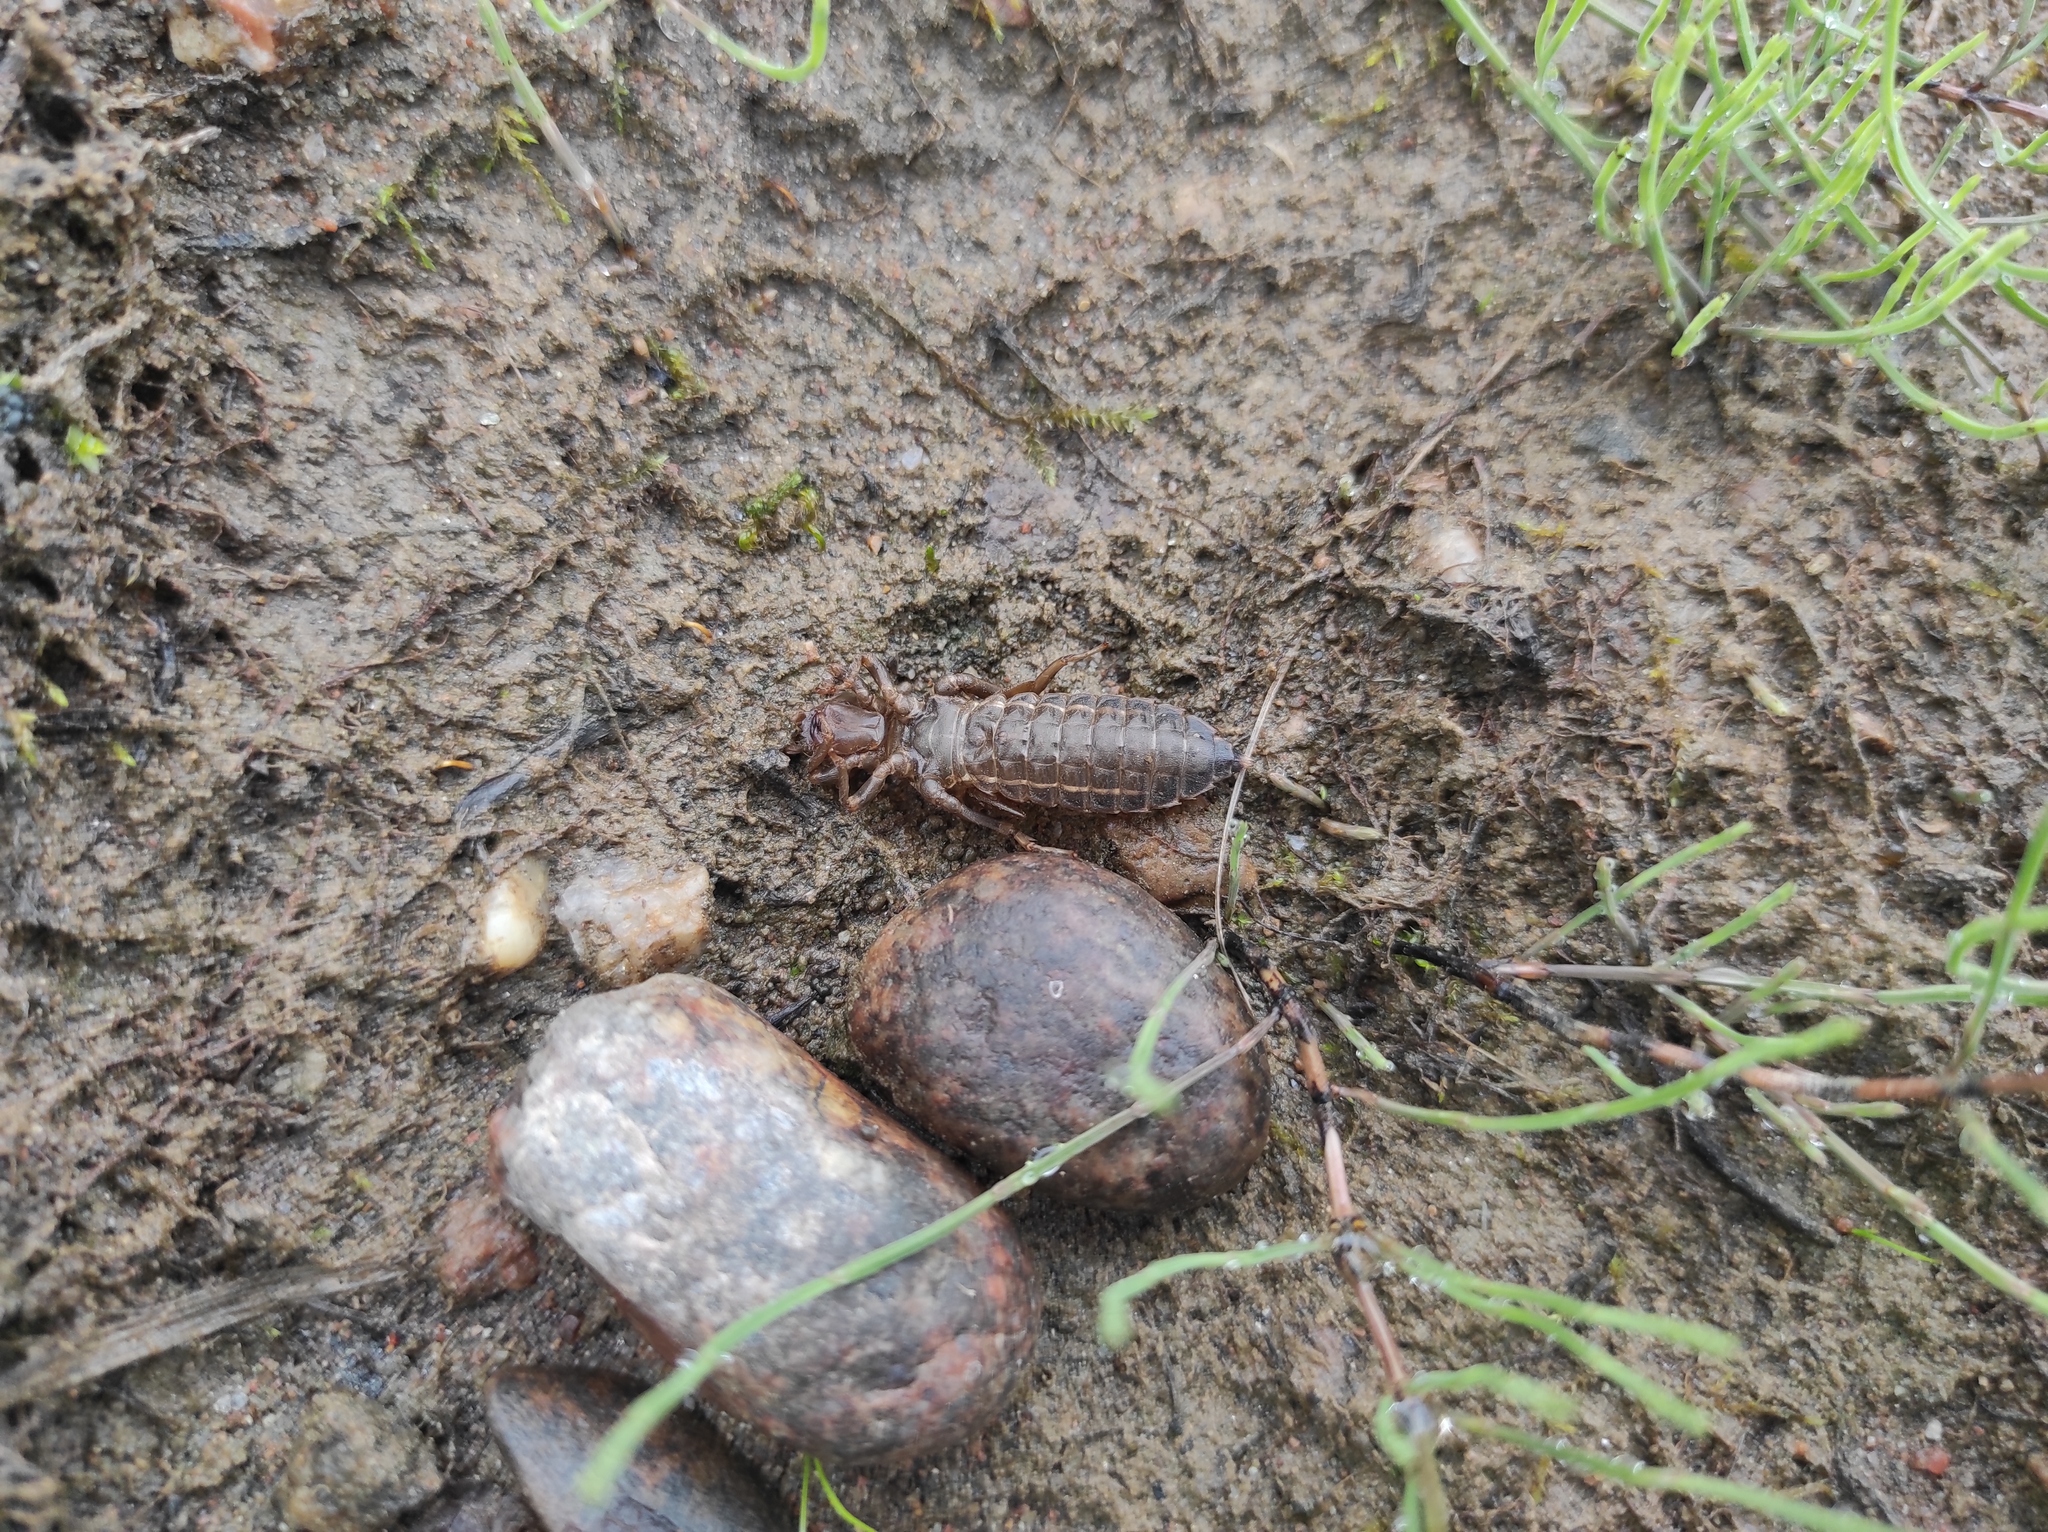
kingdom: Animalia
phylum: Arthropoda
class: Insecta
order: Odonata
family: Gomphidae
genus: Ophiogomphus
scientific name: Ophiogomphus obscurus
